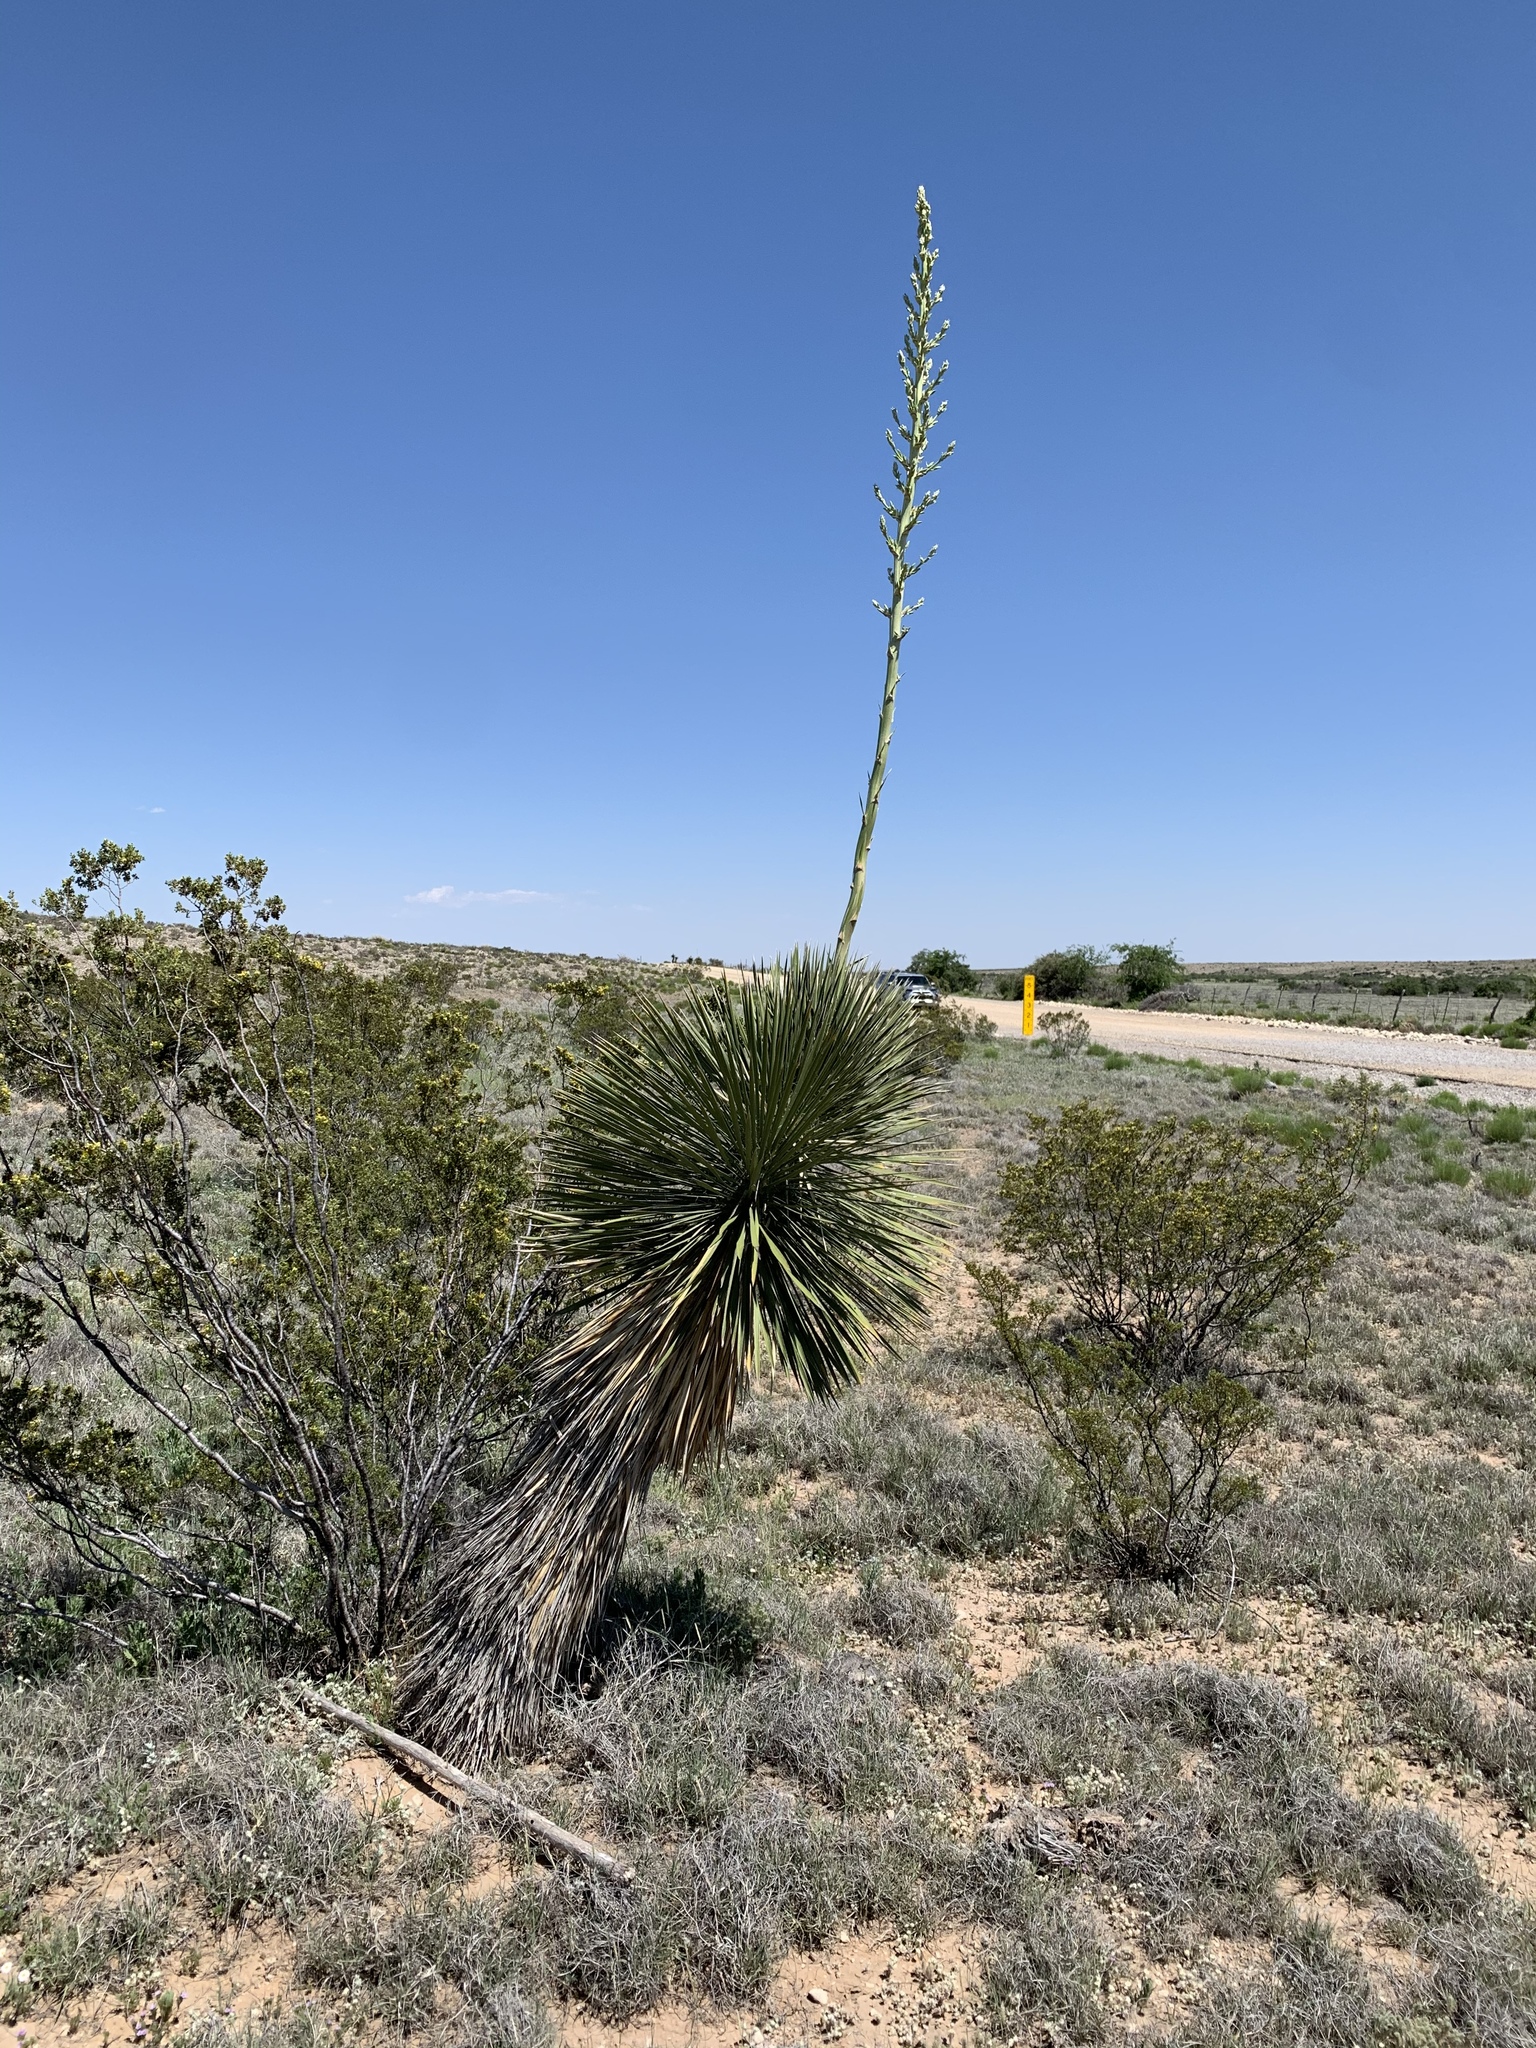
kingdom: Plantae
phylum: Tracheophyta
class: Liliopsida
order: Asparagales
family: Asparagaceae
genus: Yucca
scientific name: Yucca elata
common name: Palmella
